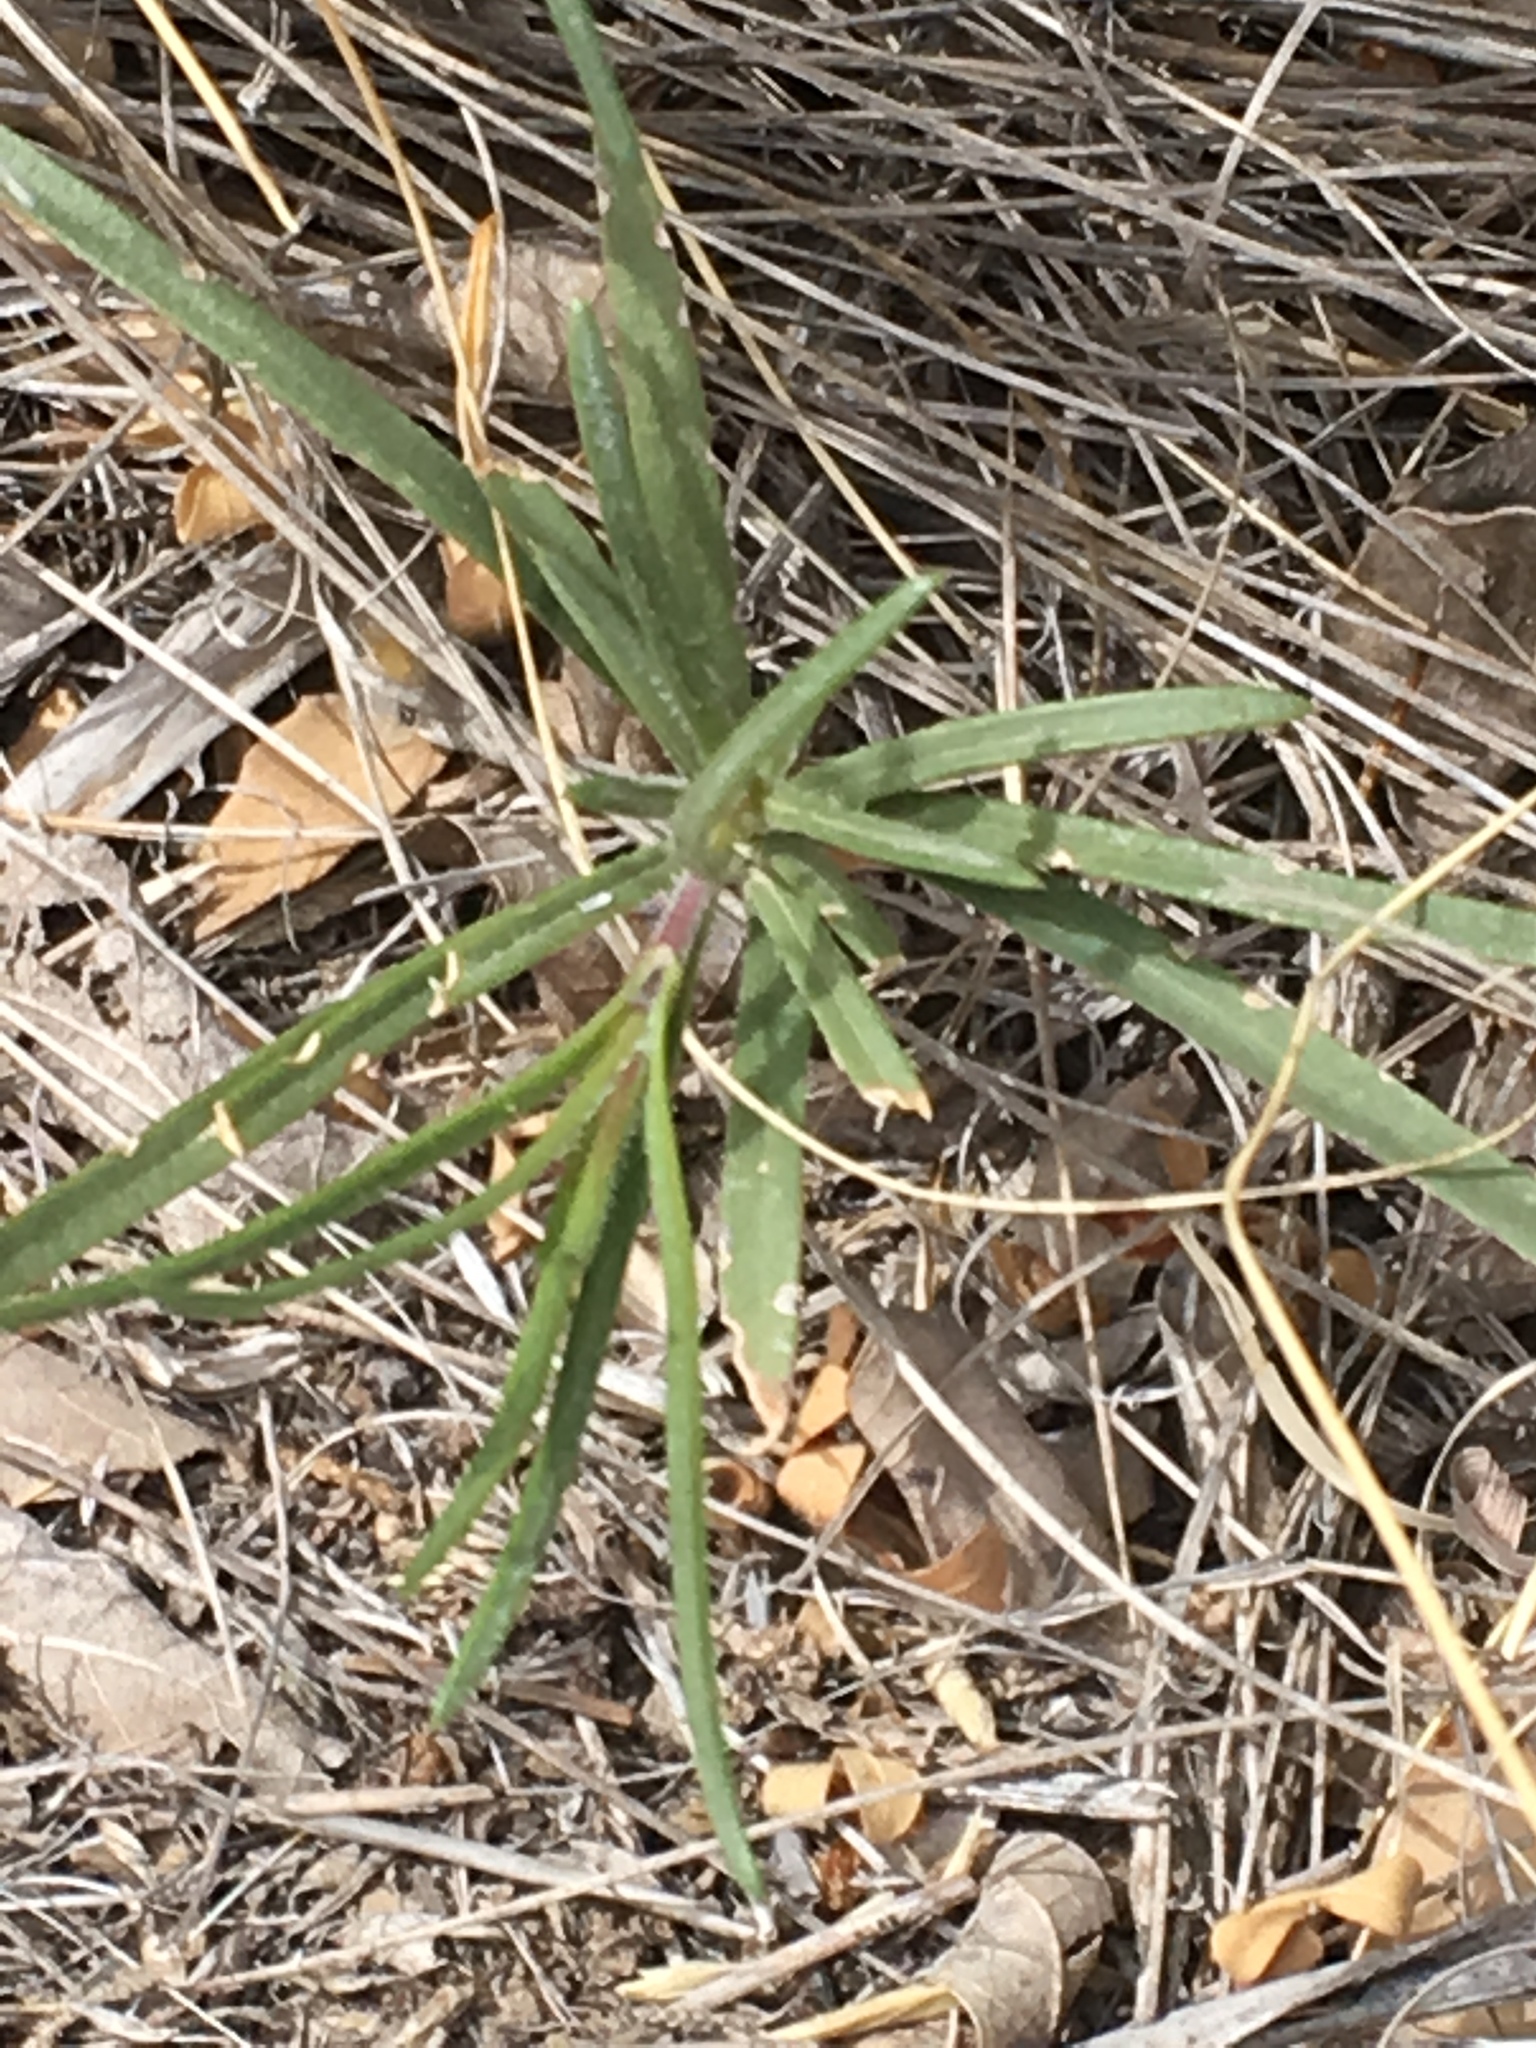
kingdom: Plantae
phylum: Tracheophyta
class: Magnoliopsida
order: Ericales
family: Polemoniaceae
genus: Phlox
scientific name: Phlox nana
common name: Santa fe phlox
